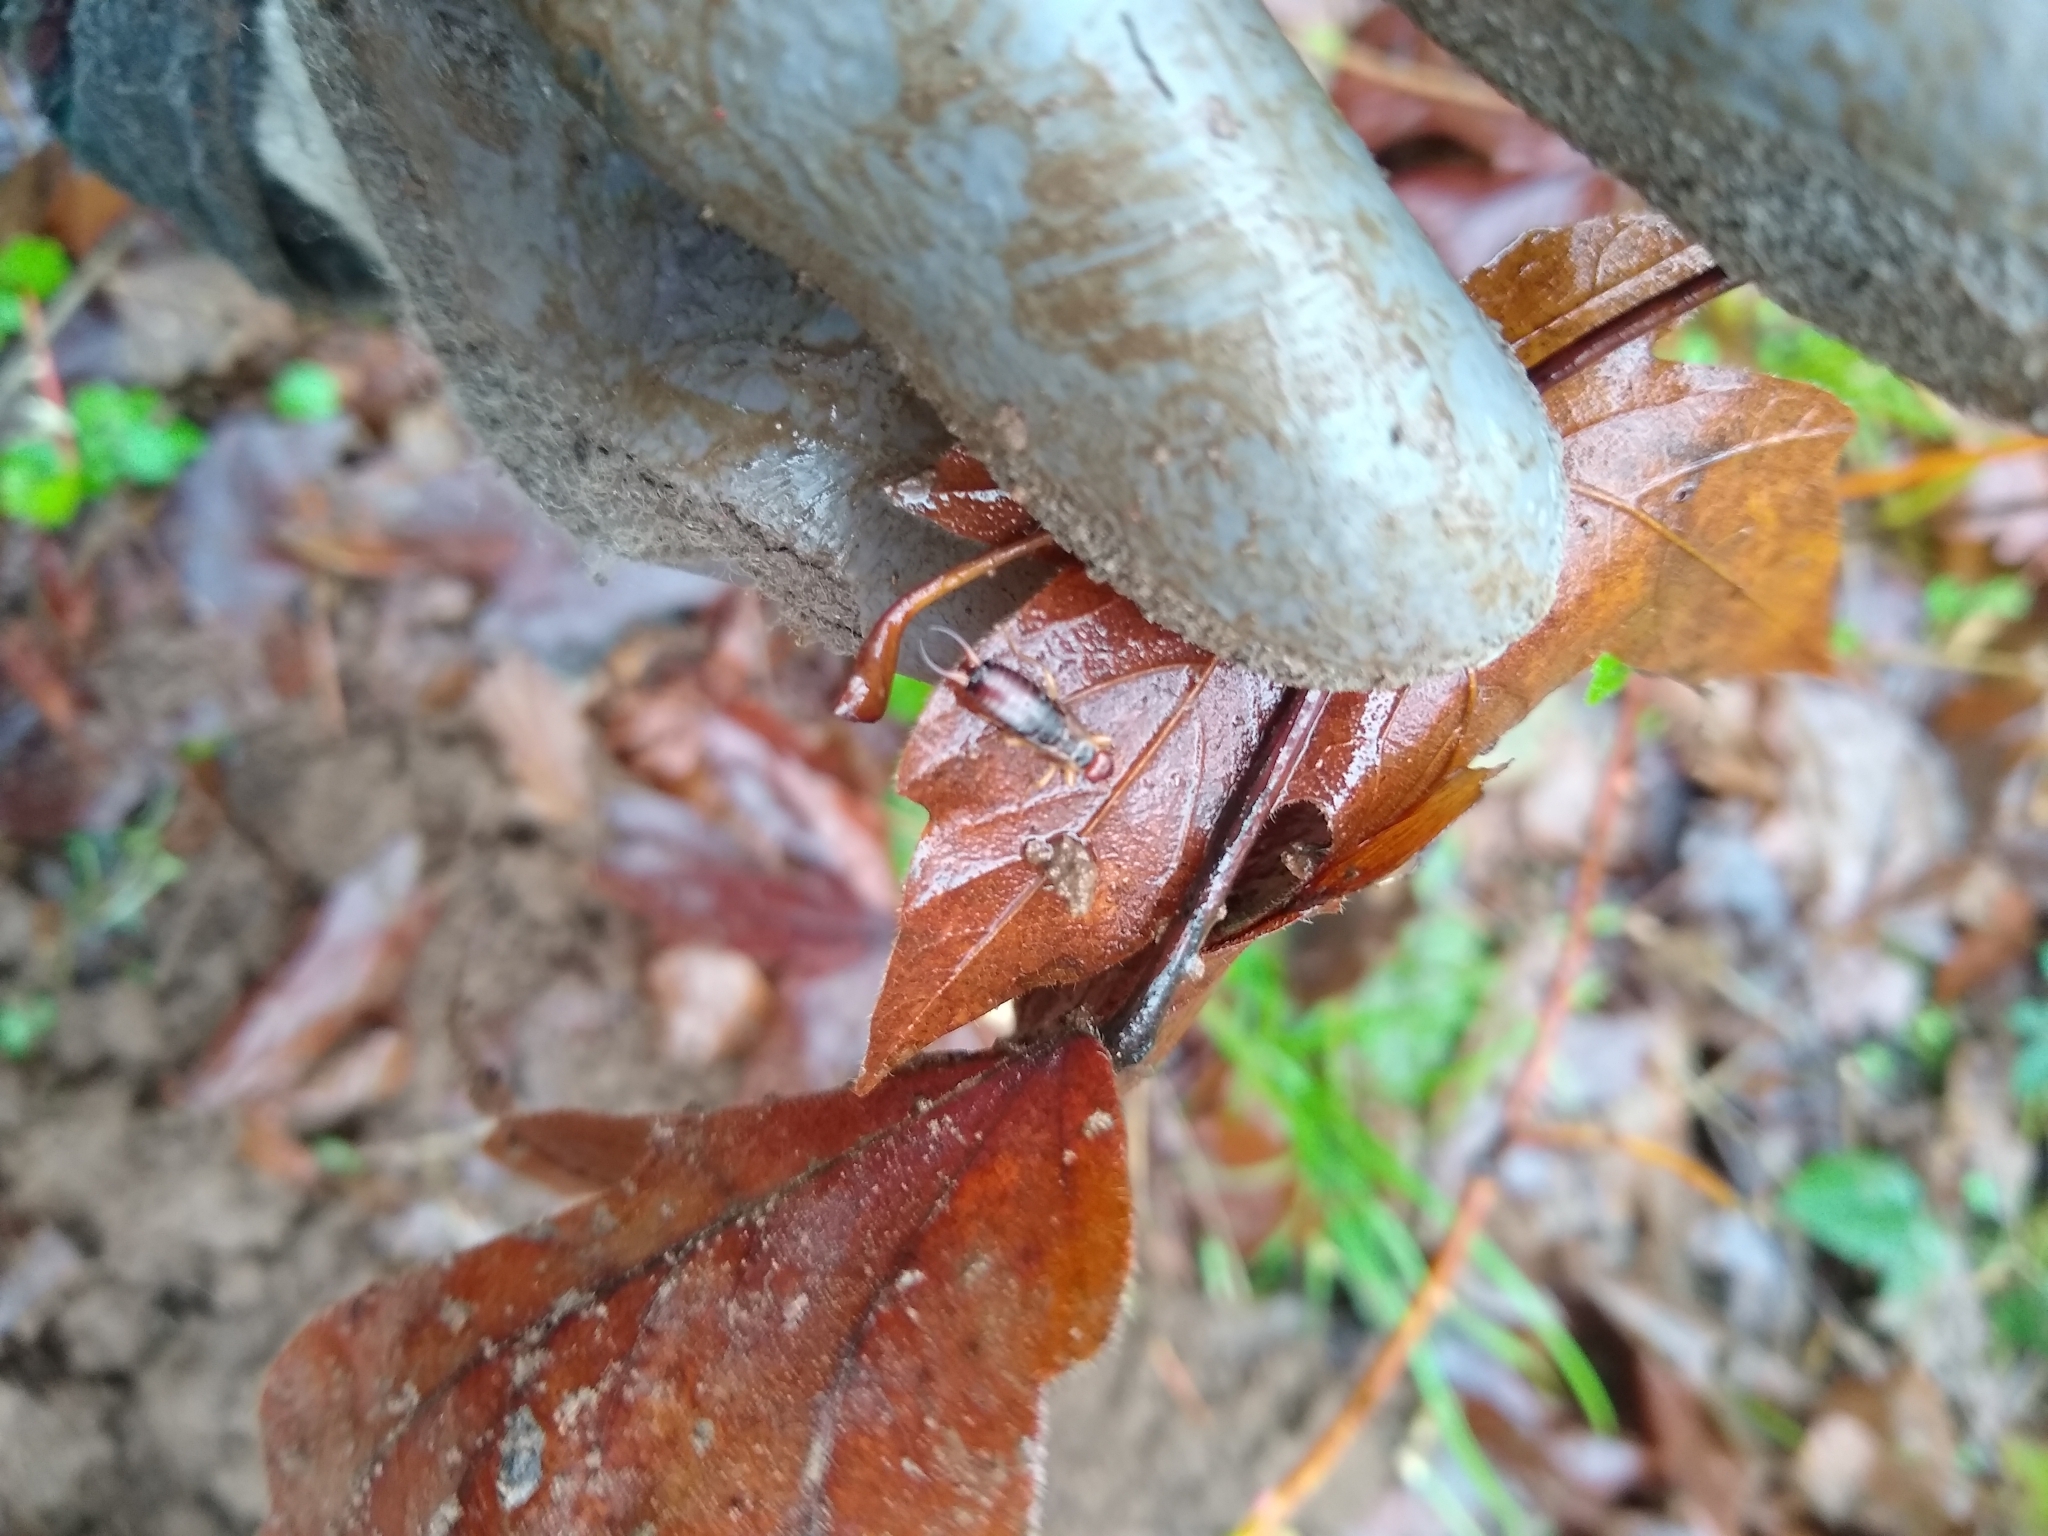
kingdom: Animalia
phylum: Arthropoda
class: Insecta
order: Dermaptera
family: Forficulidae
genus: Forficula
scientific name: Forficula dentata
